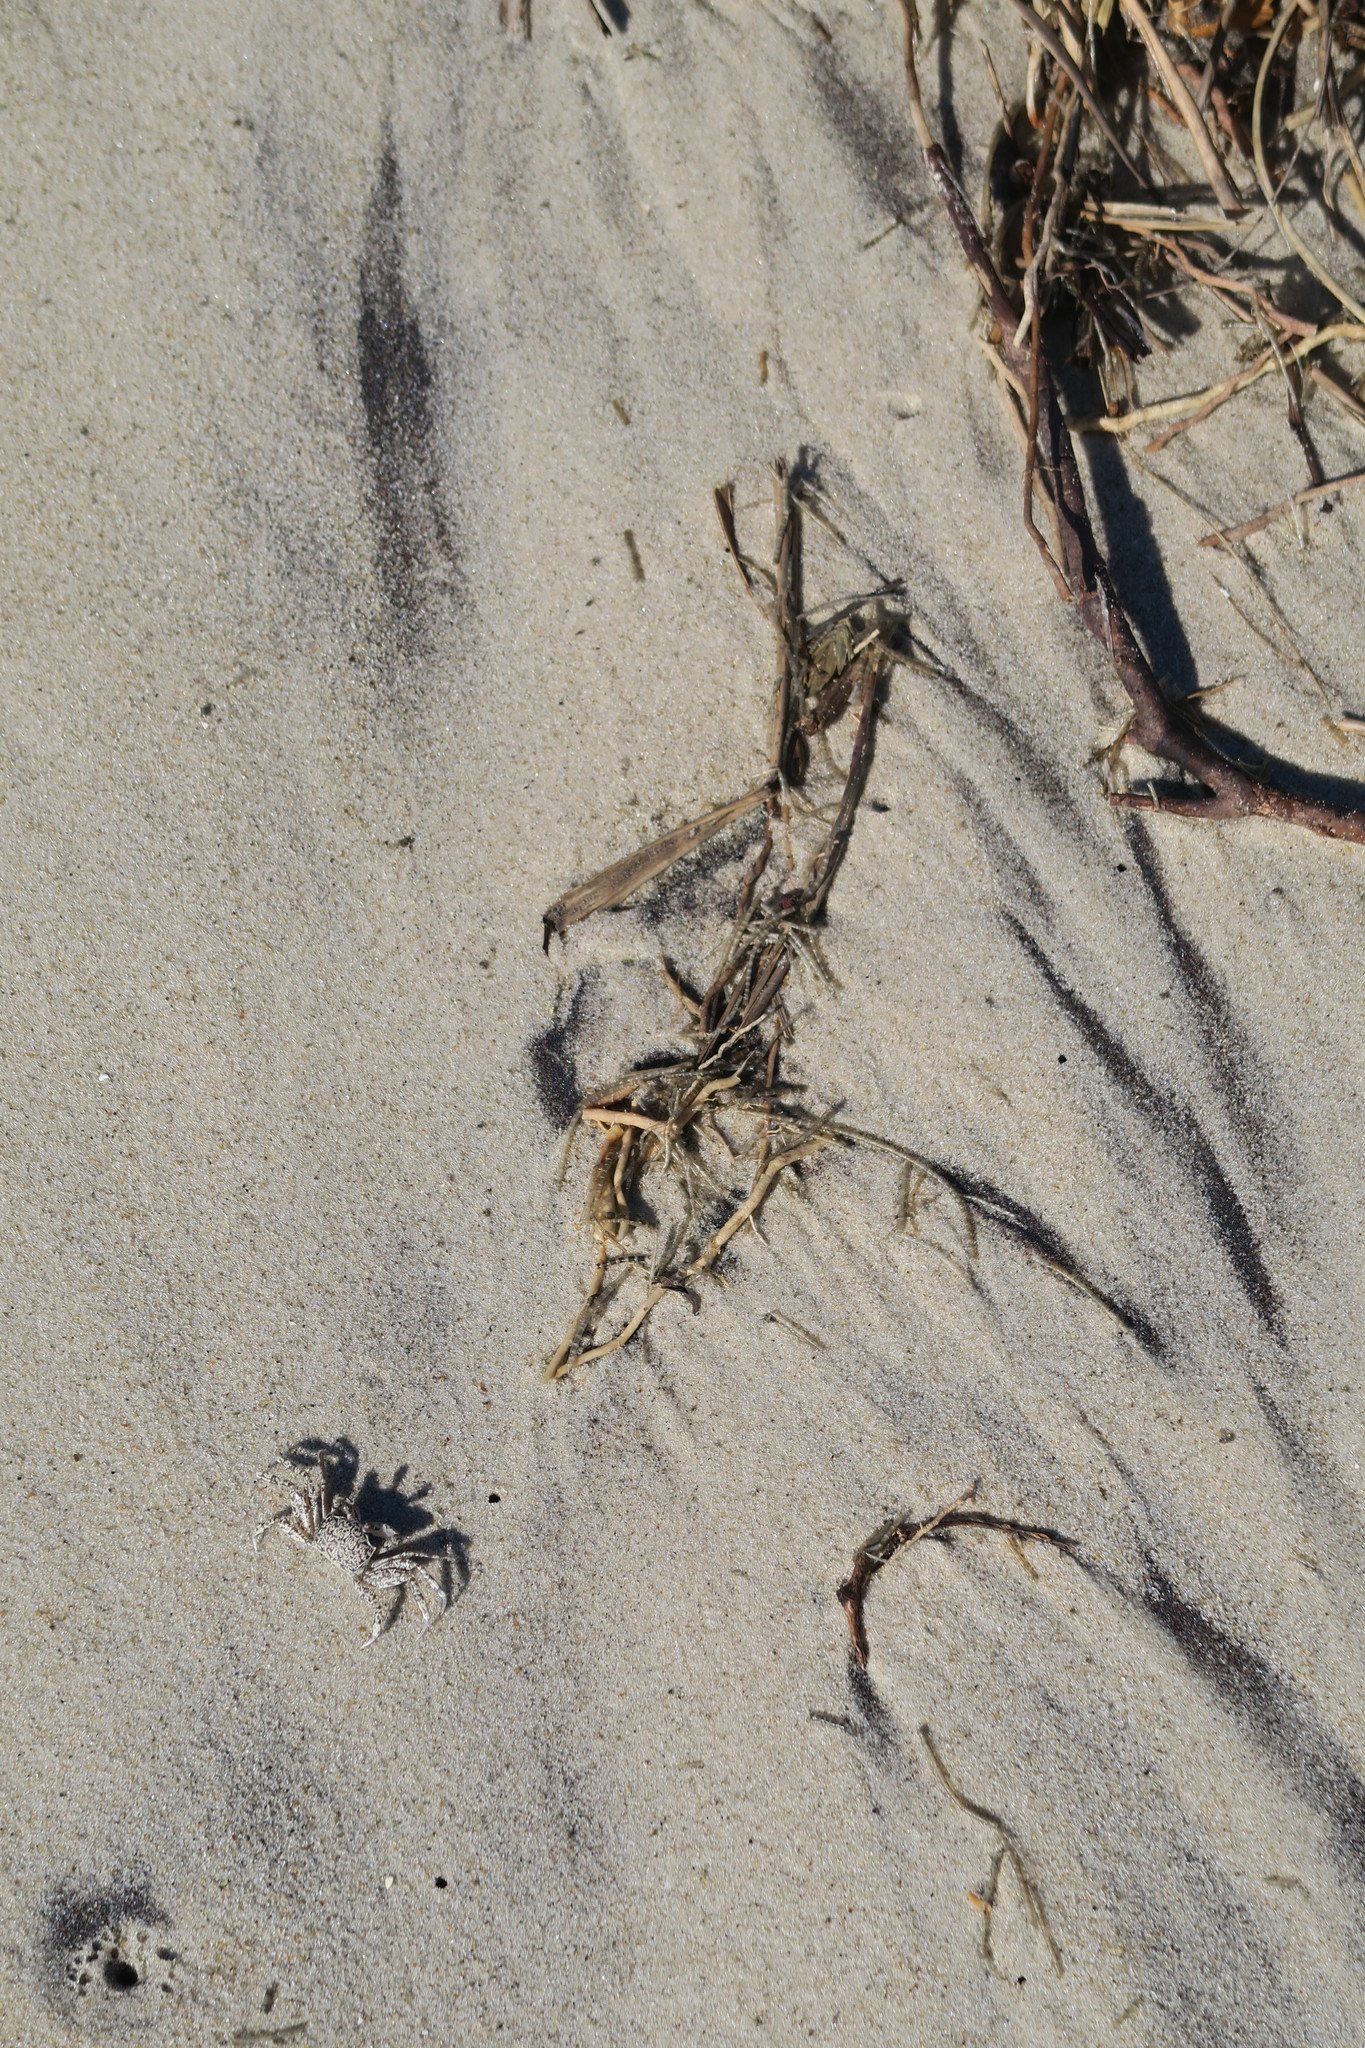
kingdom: Animalia
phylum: Arthropoda
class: Malacostraca
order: Decapoda
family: Ocypodidae
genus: Ocypode
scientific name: Ocypode quadrata
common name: Ghost crab
